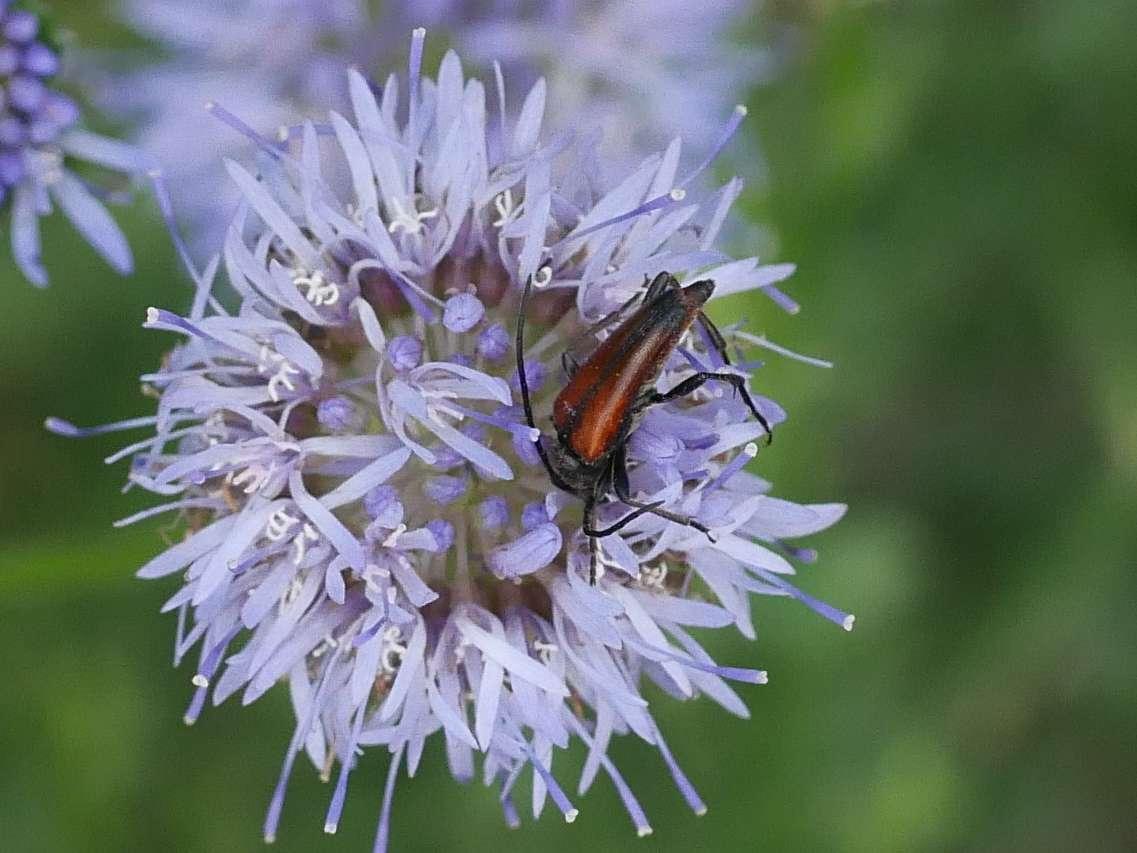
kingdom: Animalia
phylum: Arthropoda
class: Insecta
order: Coleoptera
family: Cerambycidae
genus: Stenurella
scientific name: Stenurella bifasciata
